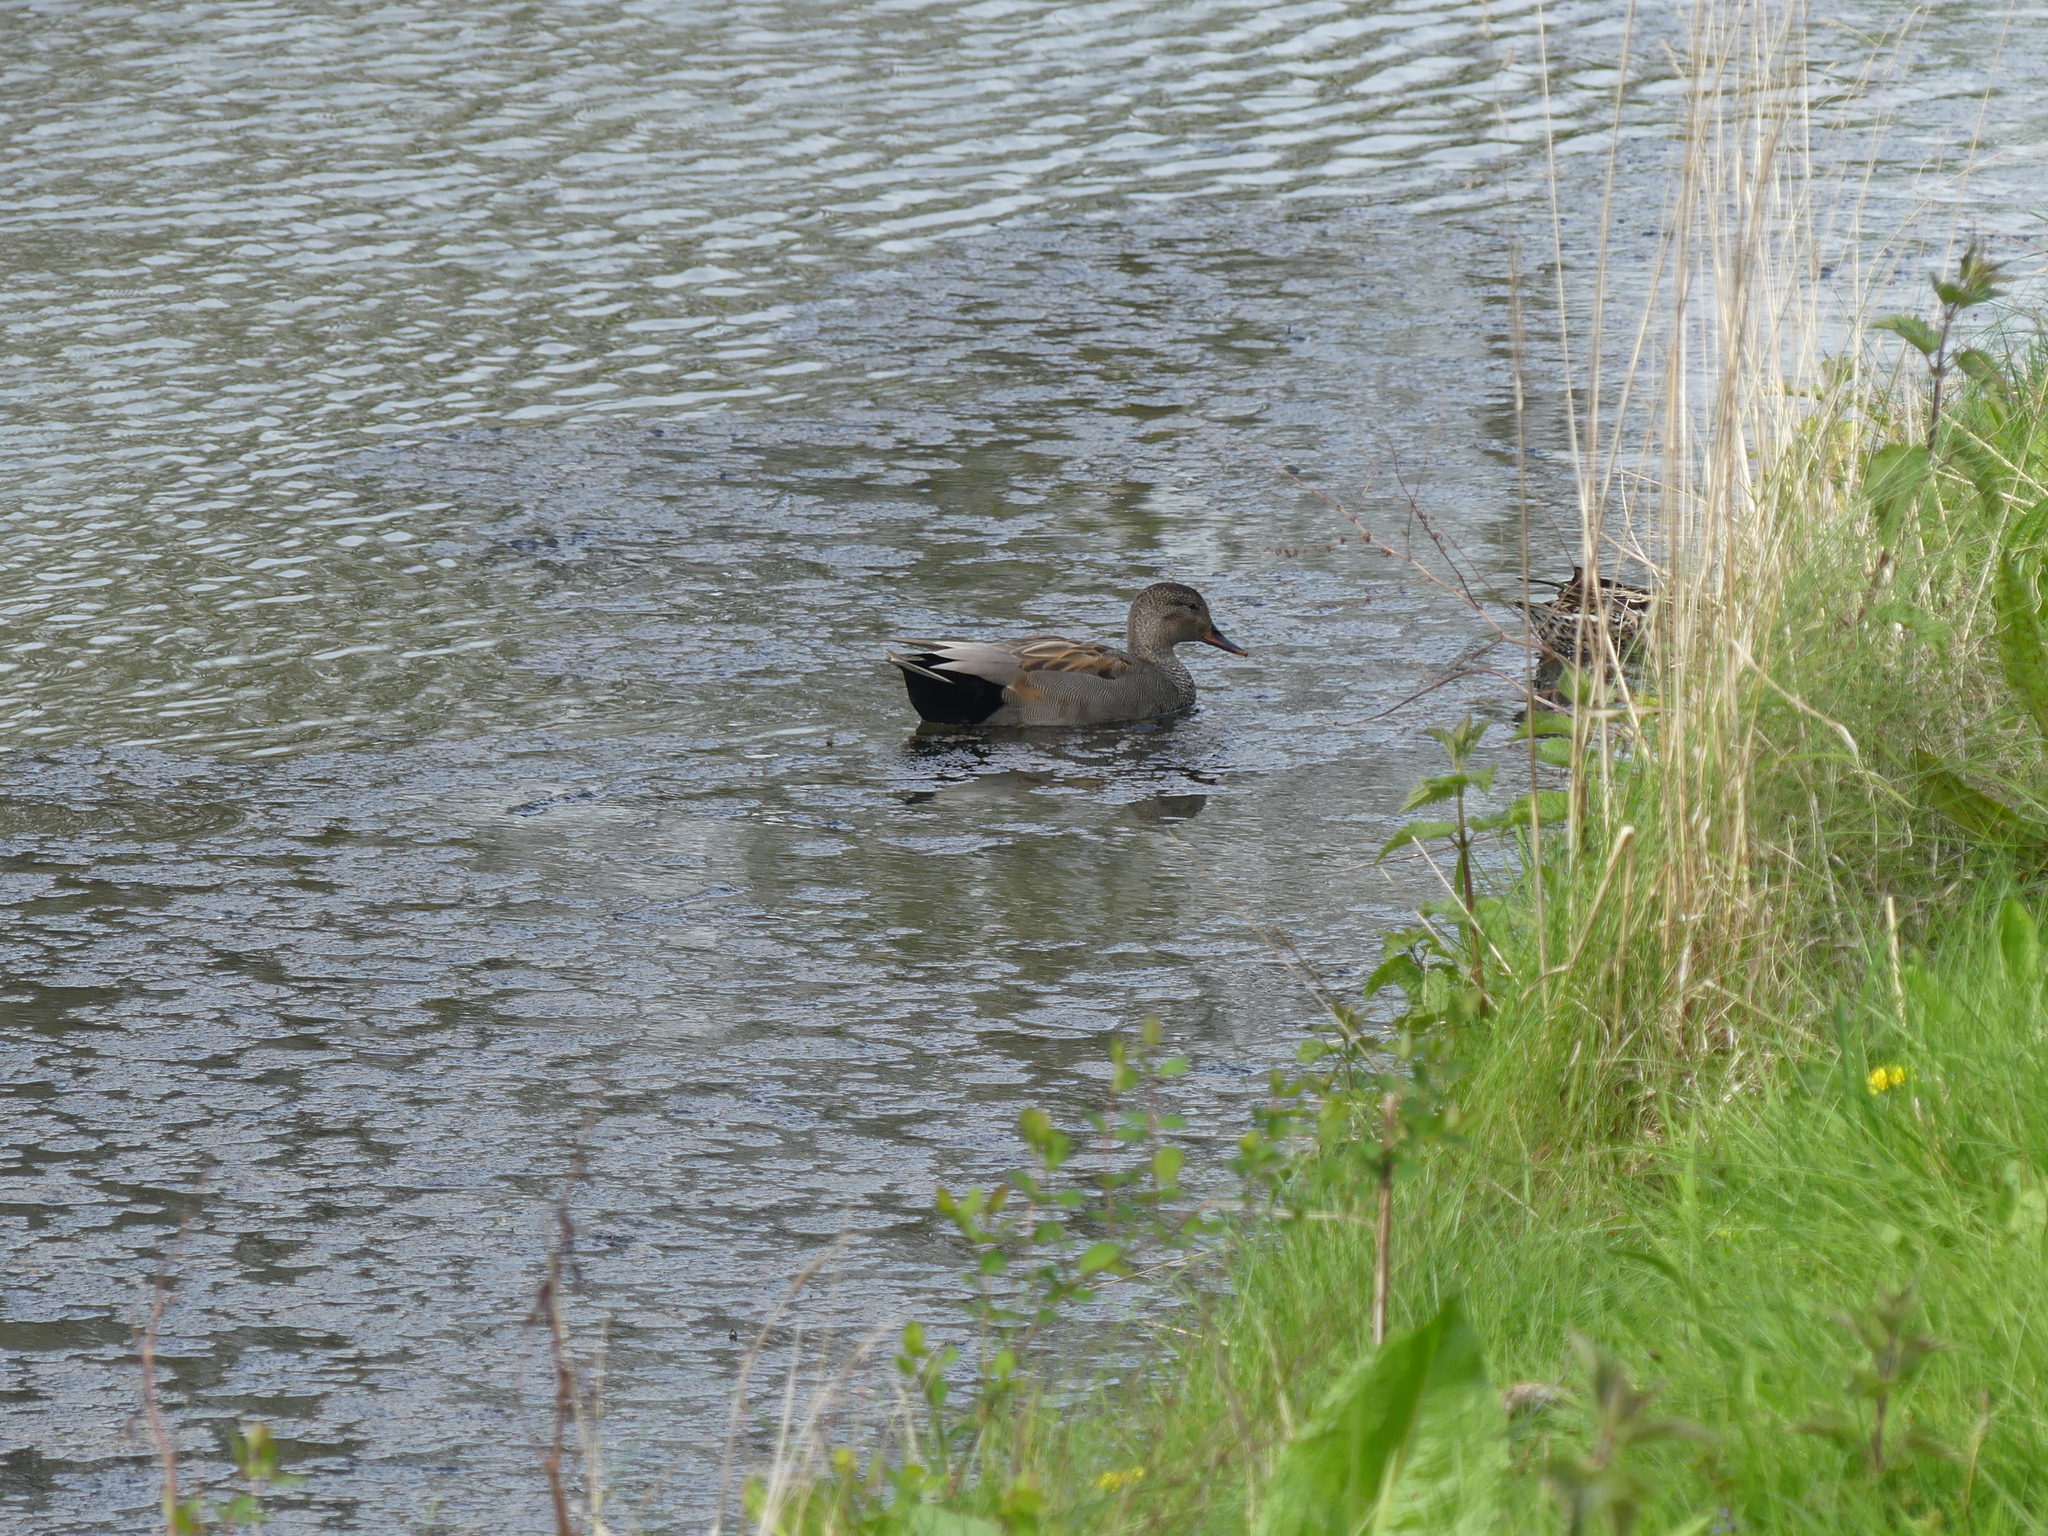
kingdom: Animalia
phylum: Chordata
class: Aves
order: Anseriformes
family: Anatidae
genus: Mareca
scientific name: Mareca strepera
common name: Gadwall
